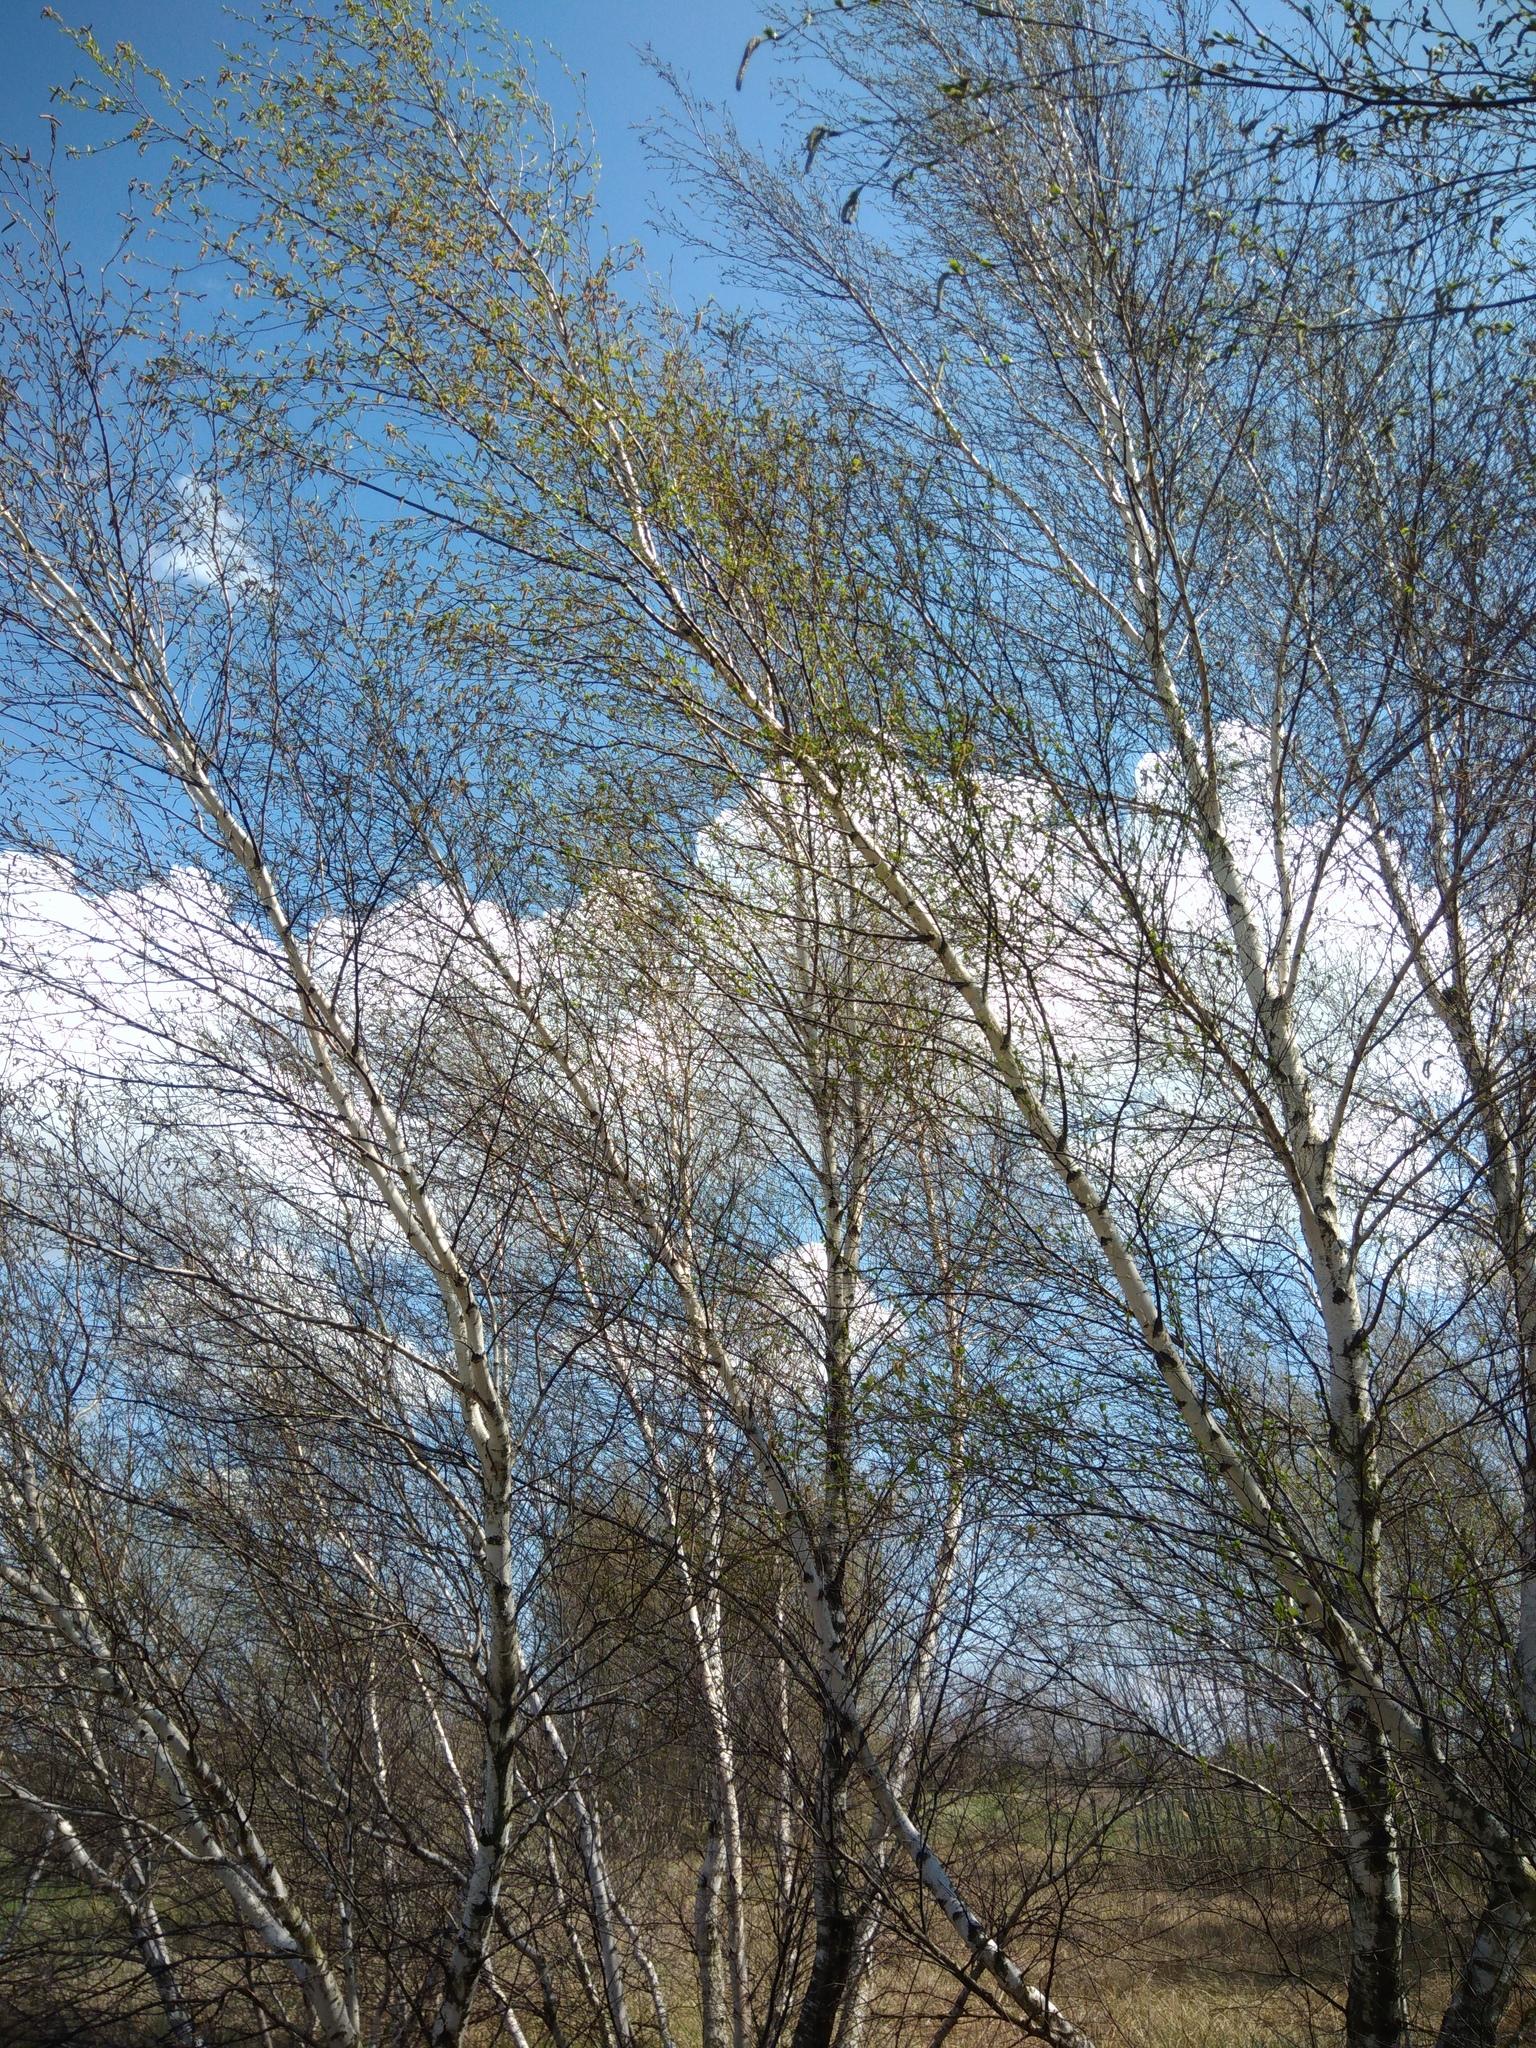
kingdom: Plantae
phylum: Tracheophyta
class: Magnoliopsida
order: Fagales
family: Betulaceae
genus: Betula
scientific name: Betula pubescens
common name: Downy birch
